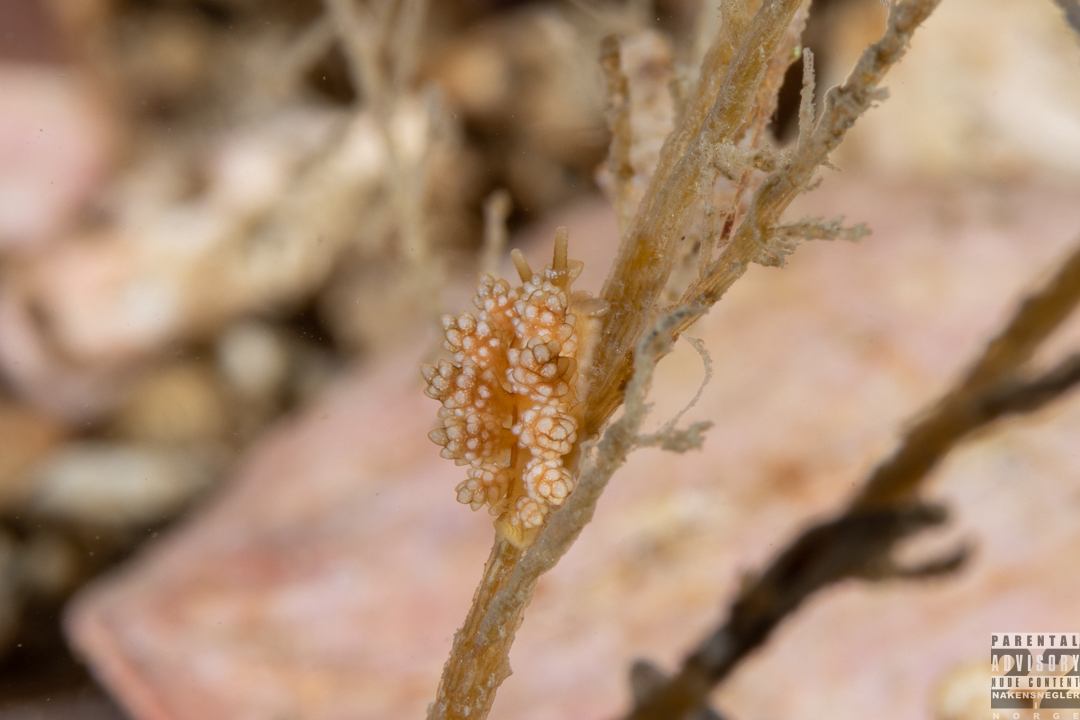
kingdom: Animalia
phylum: Mollusca
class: Gastropoda
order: Nudibranchia
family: Dotidae
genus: Doto
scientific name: Doto fragilis
